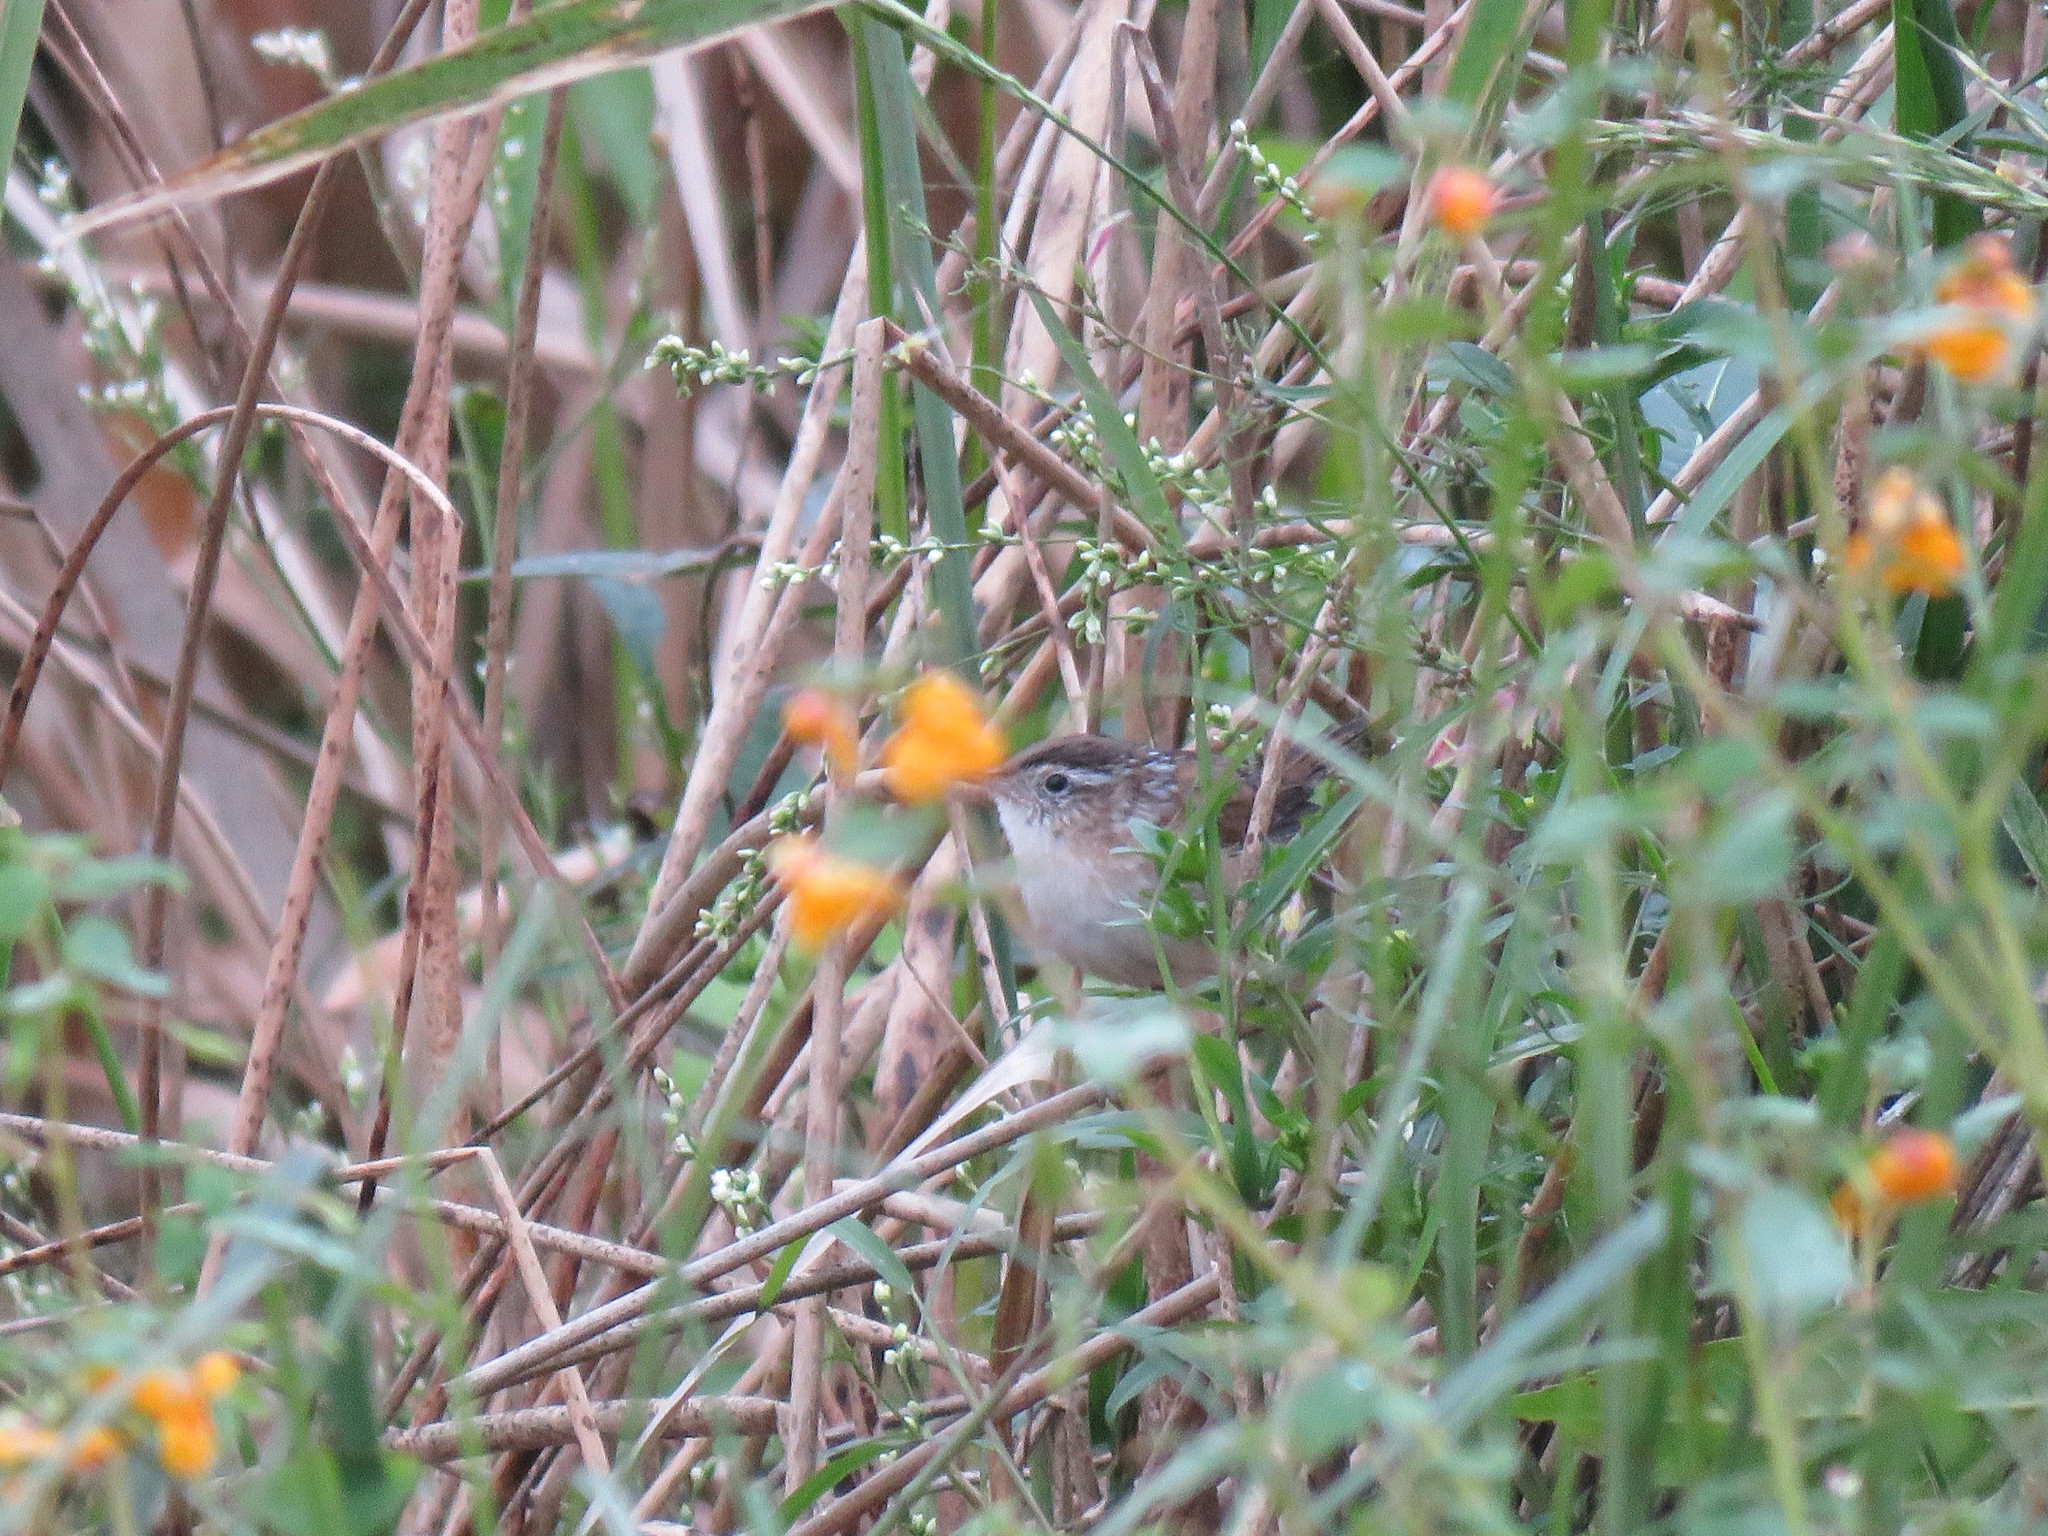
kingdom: Animalia
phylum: Chordata
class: Aves
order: Passeriformes
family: Troglodytidae
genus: Cistothorus
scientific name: Cistothorus palustris
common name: Marsh wren
